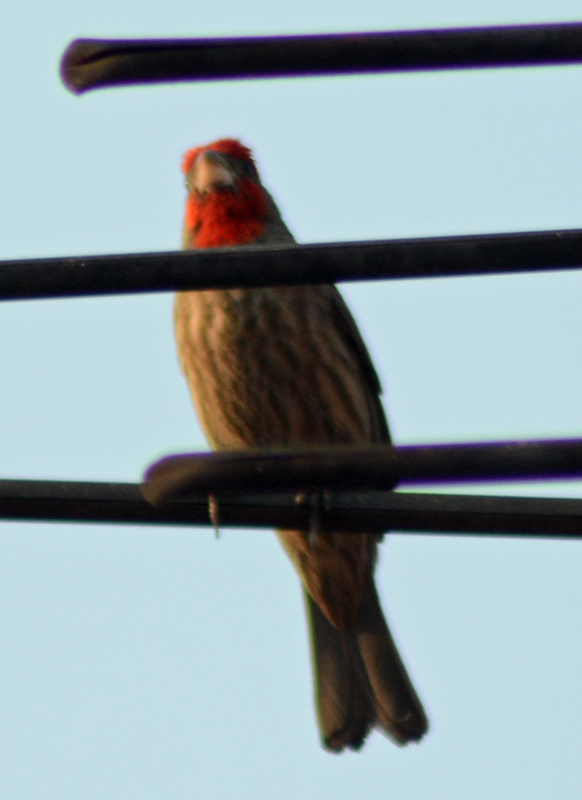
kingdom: Animalia
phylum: Chordata
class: Aves
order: Passeriformes
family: Fringillidae
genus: Haemorhous
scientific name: Haemorhous mexicanus
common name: House finch
